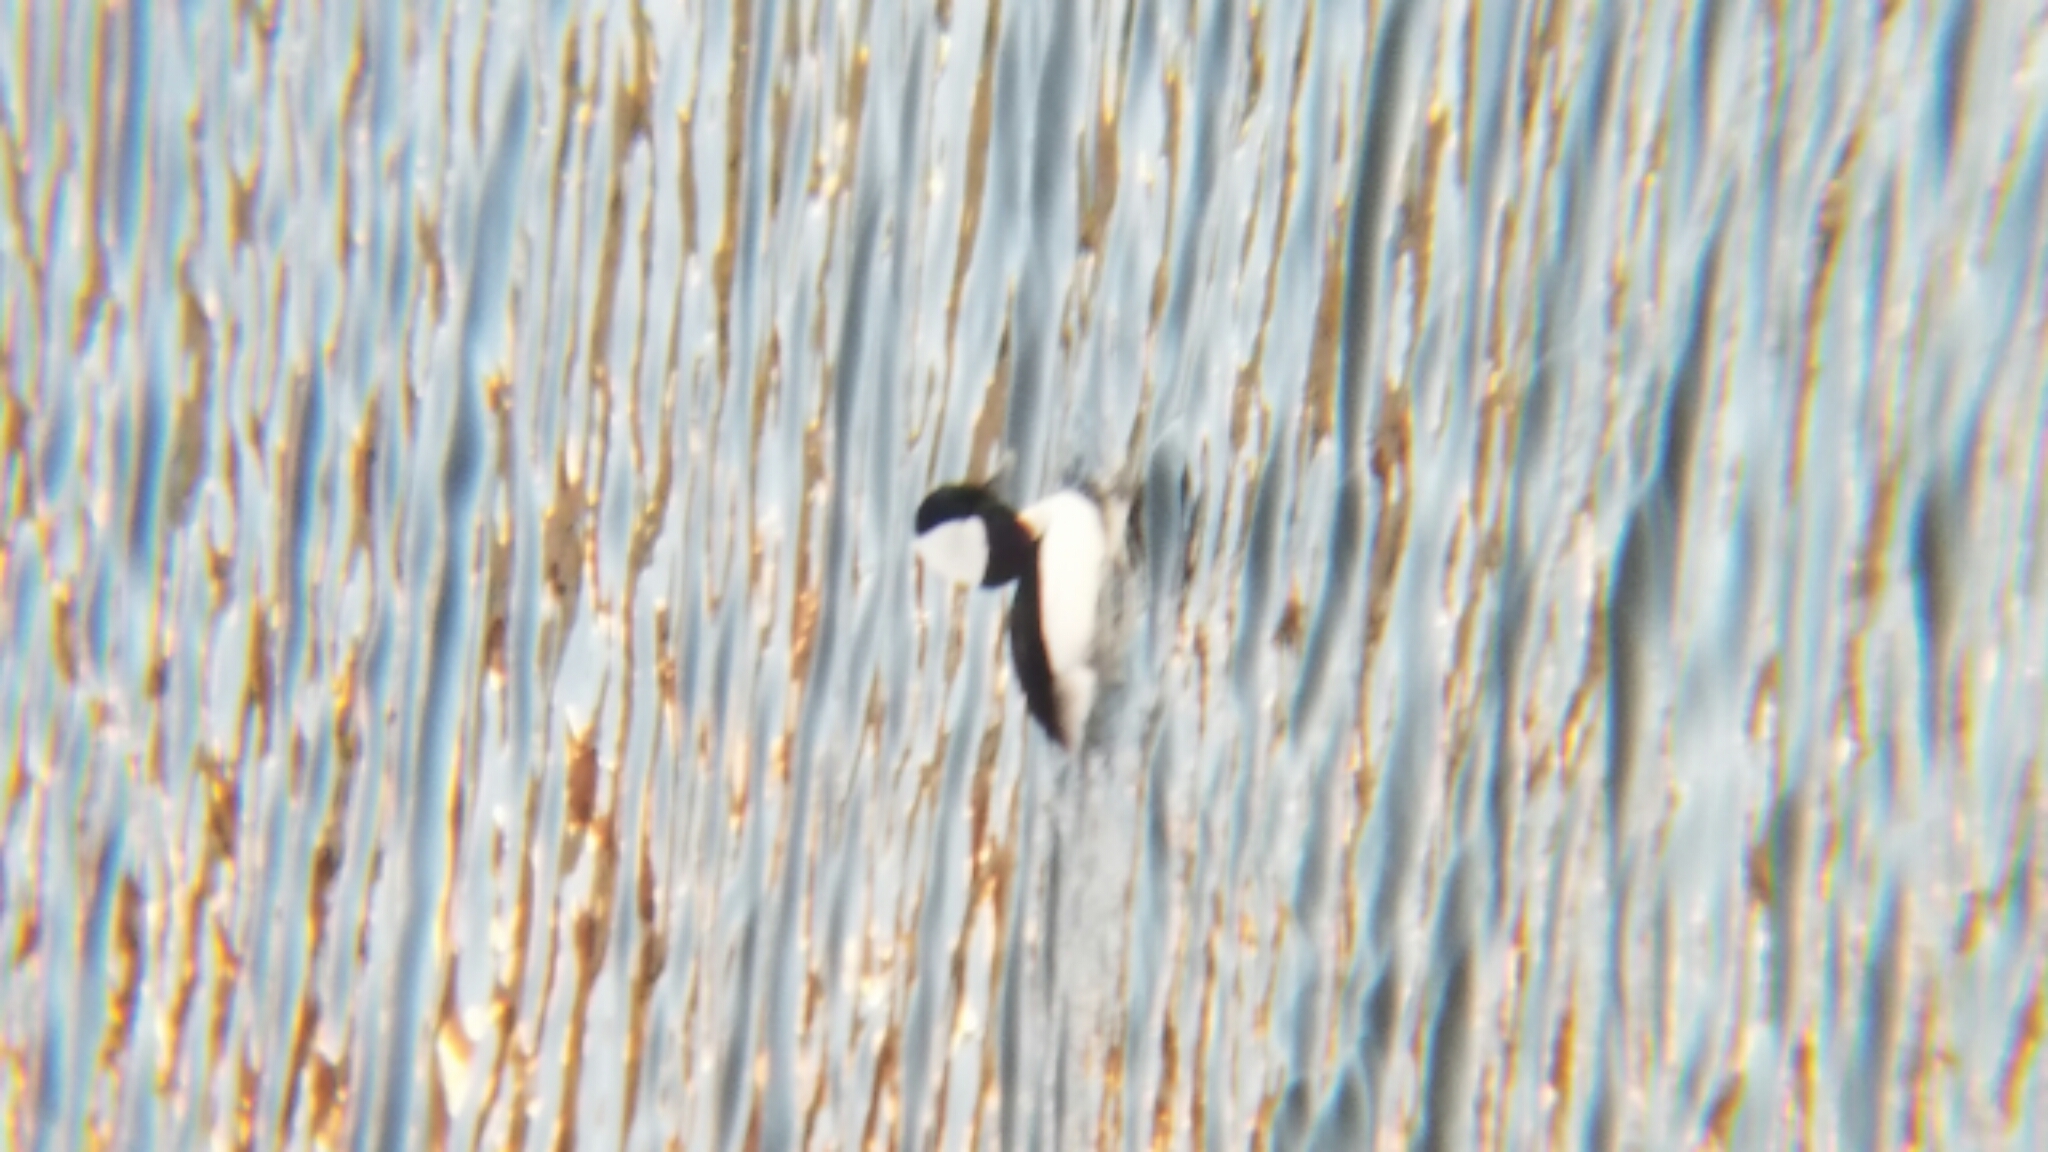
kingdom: Animalia
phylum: Chordata
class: Aves
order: Anseriformes
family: Anatidae
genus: Bucephala
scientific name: Bucephala albeola
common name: Bufflehead
